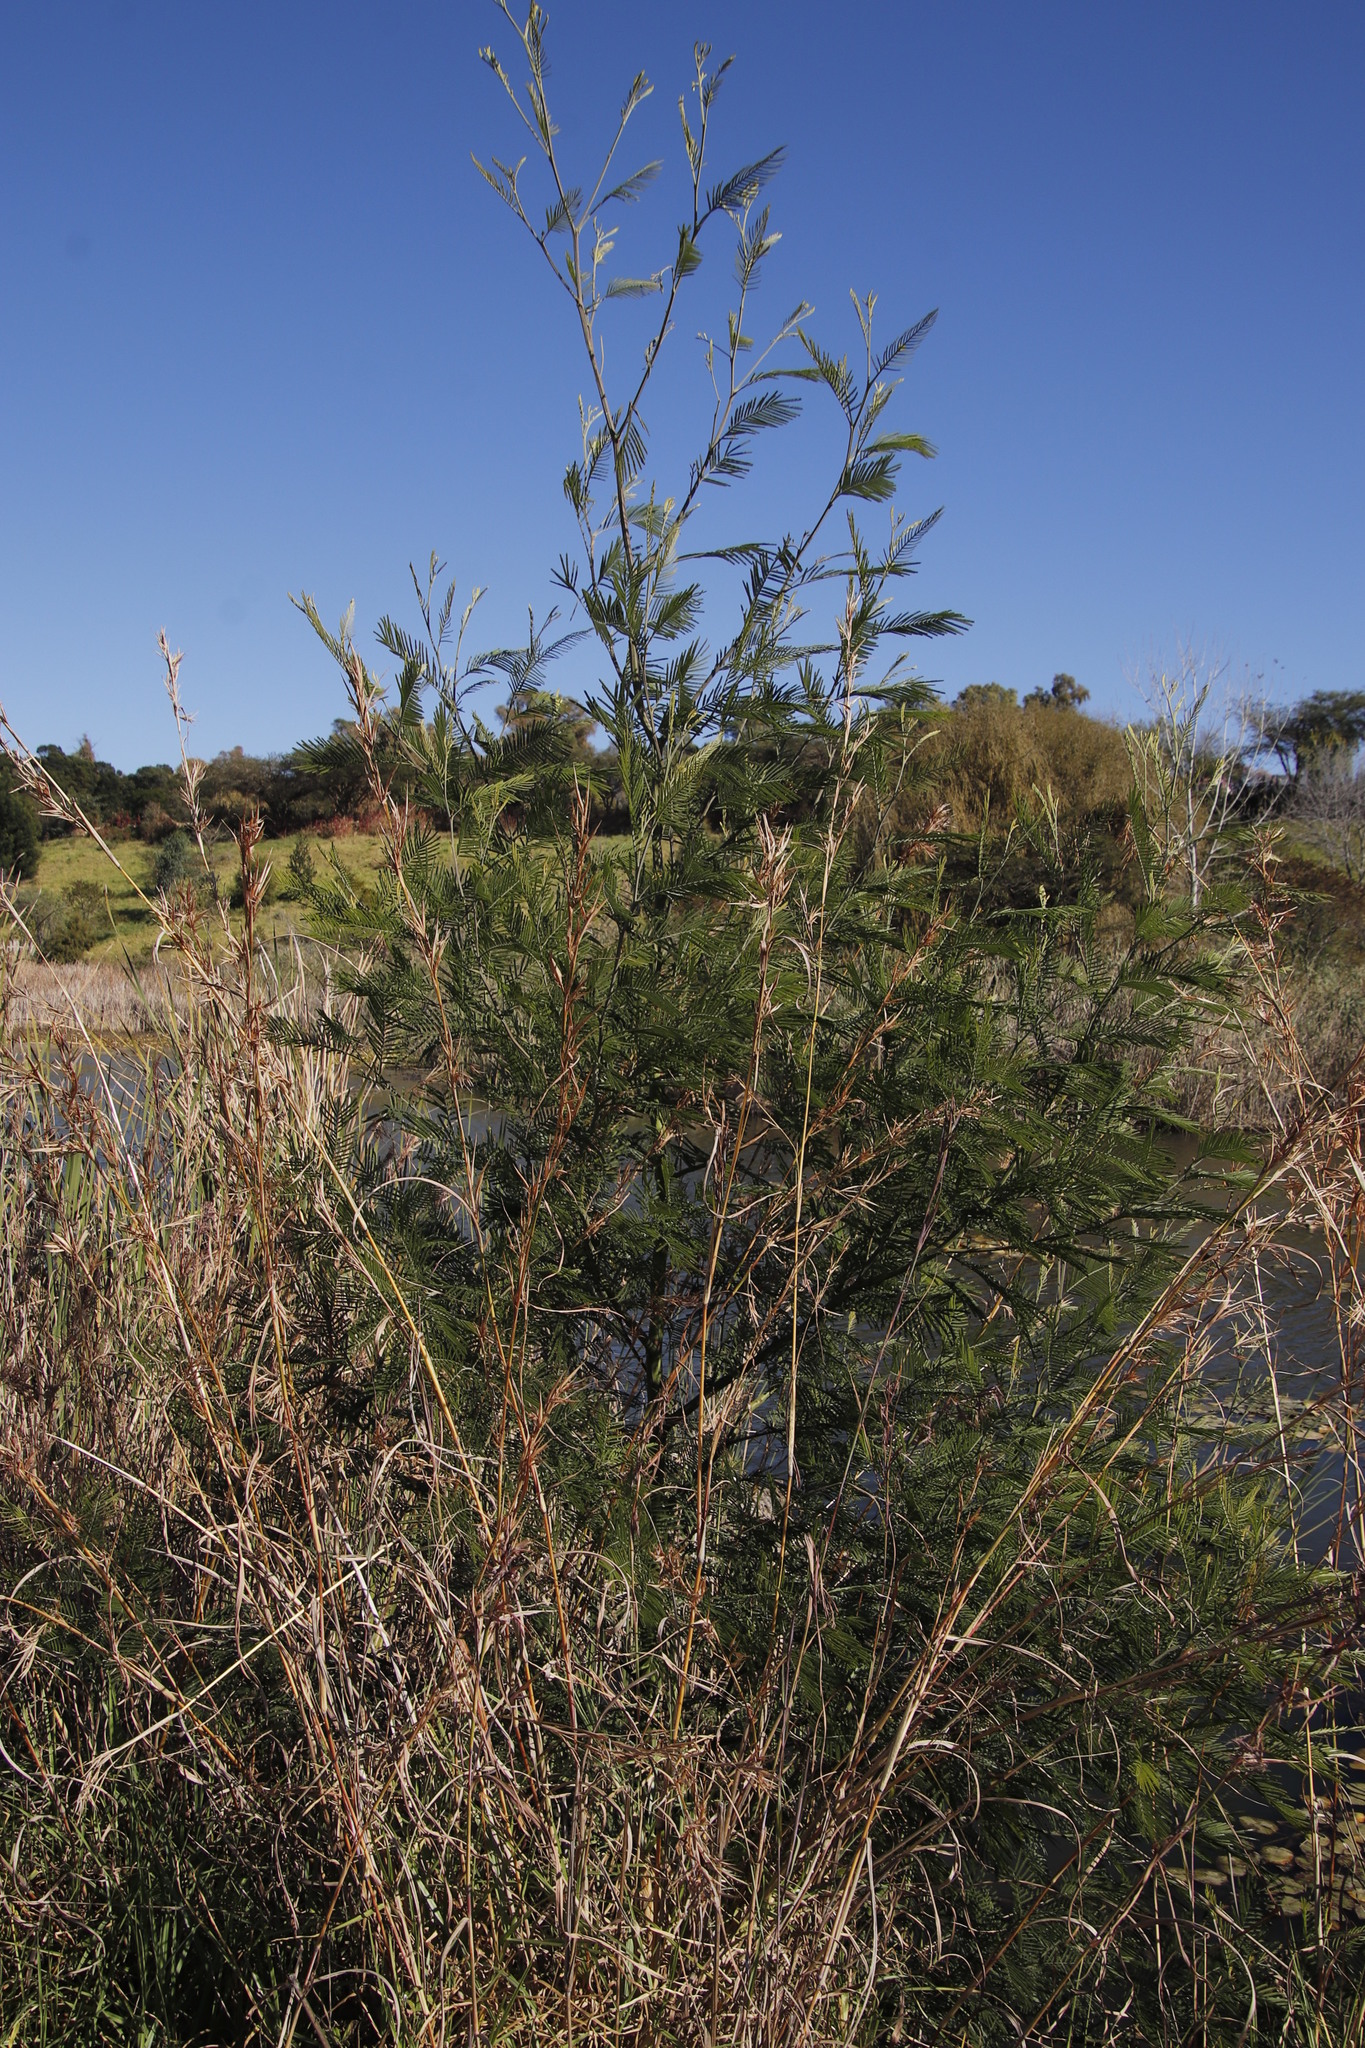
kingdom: Plantae
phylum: Tracheophyta
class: Magnoliopsida
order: Fabales
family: Fabaceae
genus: Acacia
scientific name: Acacia mearnsii
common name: Black wattle
